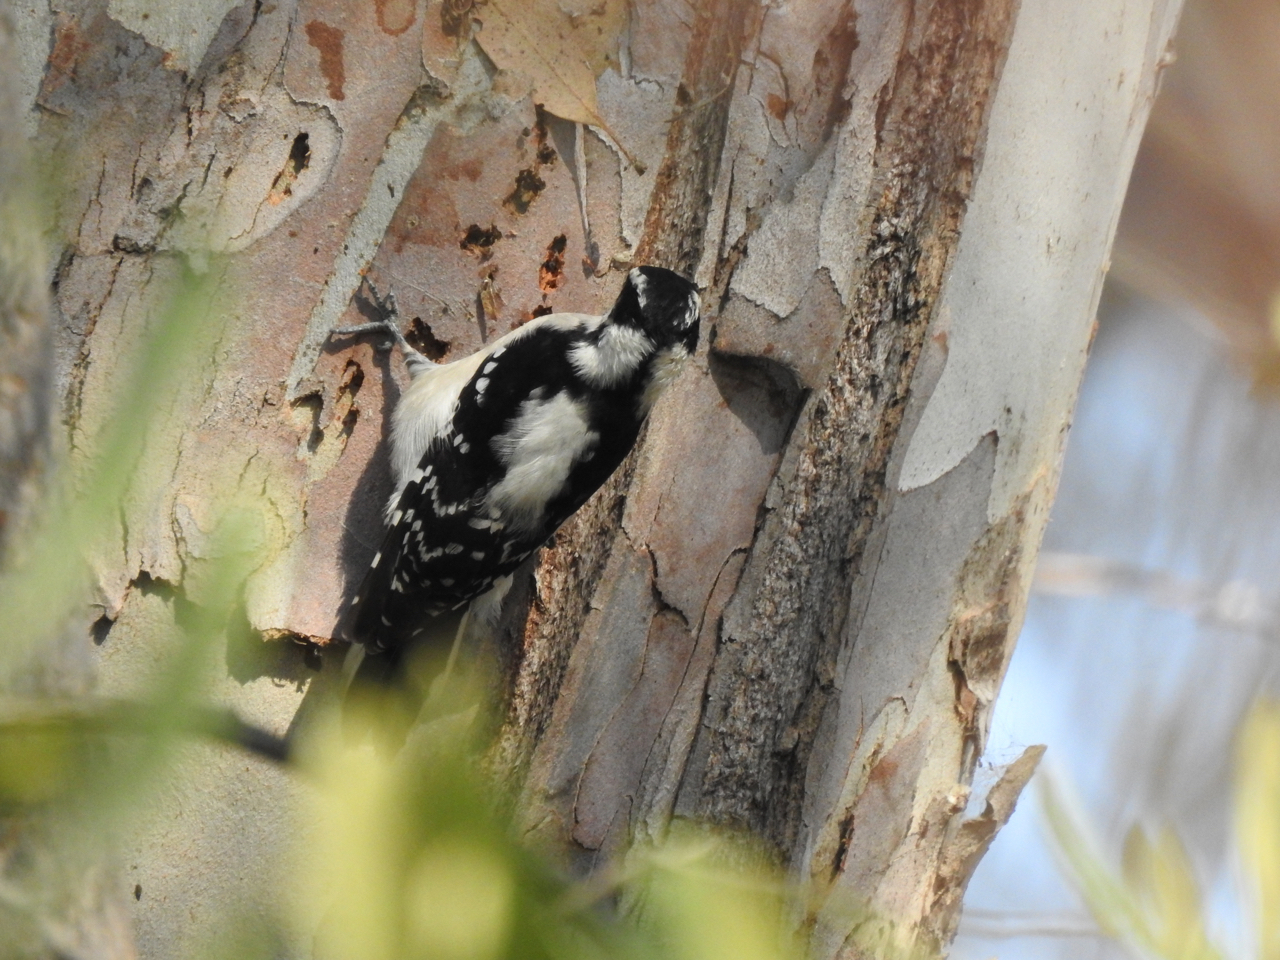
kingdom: Animalia
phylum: Chordata
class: Aves
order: Piciformes
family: Picidae
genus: Dryobates
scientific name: Dryobates pubescens
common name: Downy woodpecker
